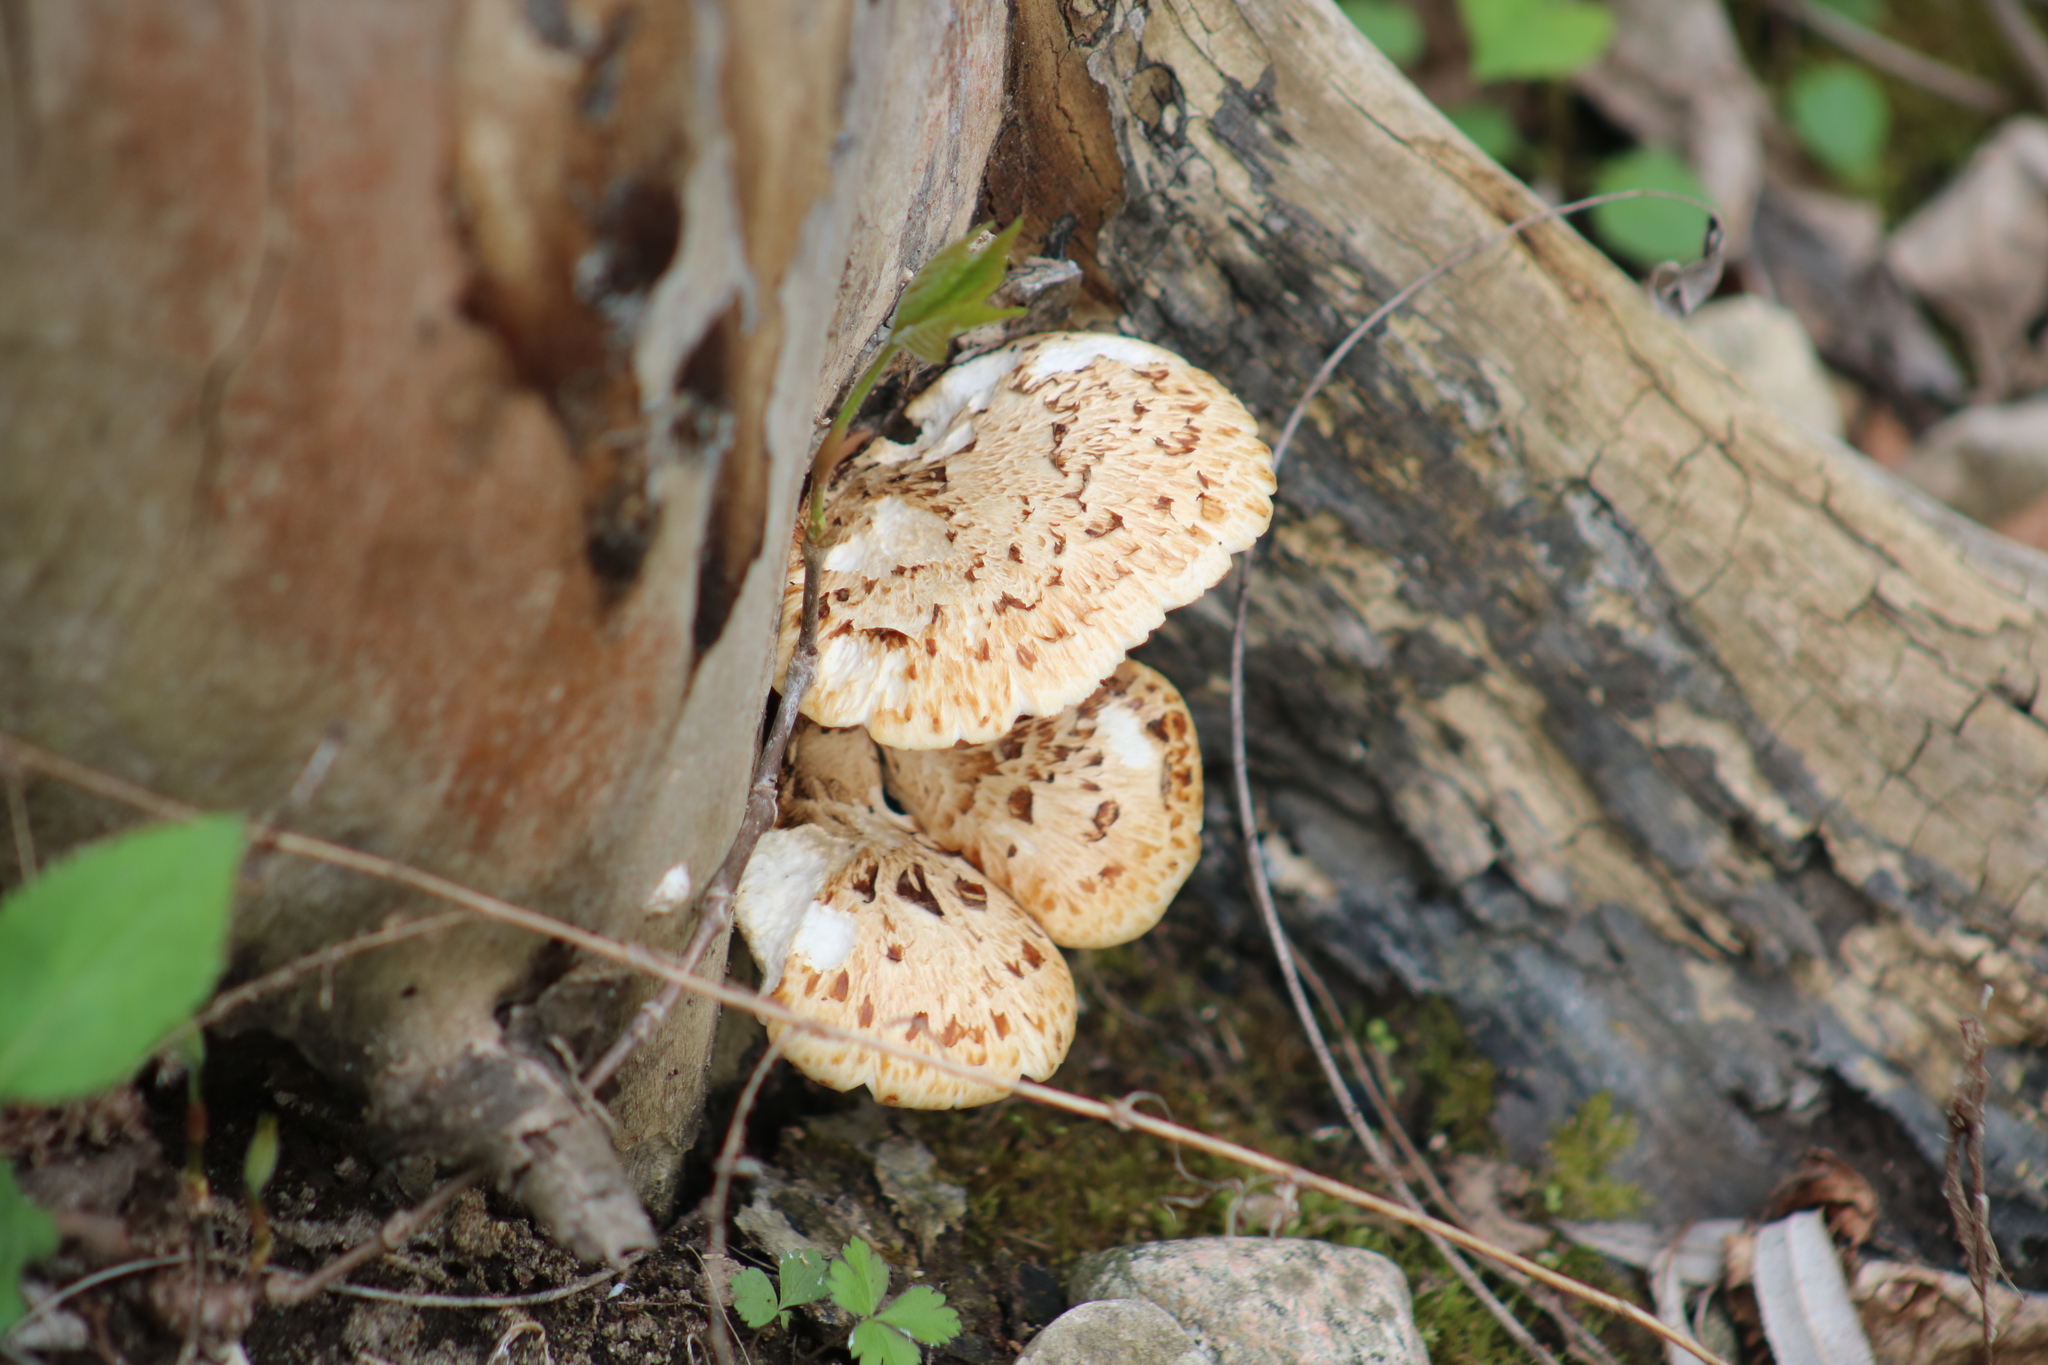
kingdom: Fungi
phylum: Basidiomycota
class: Agaricomycetes
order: Polyporales
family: Polyporaceae
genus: Cerioporus
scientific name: Cerioporus squamosus
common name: Dryad's saddle
